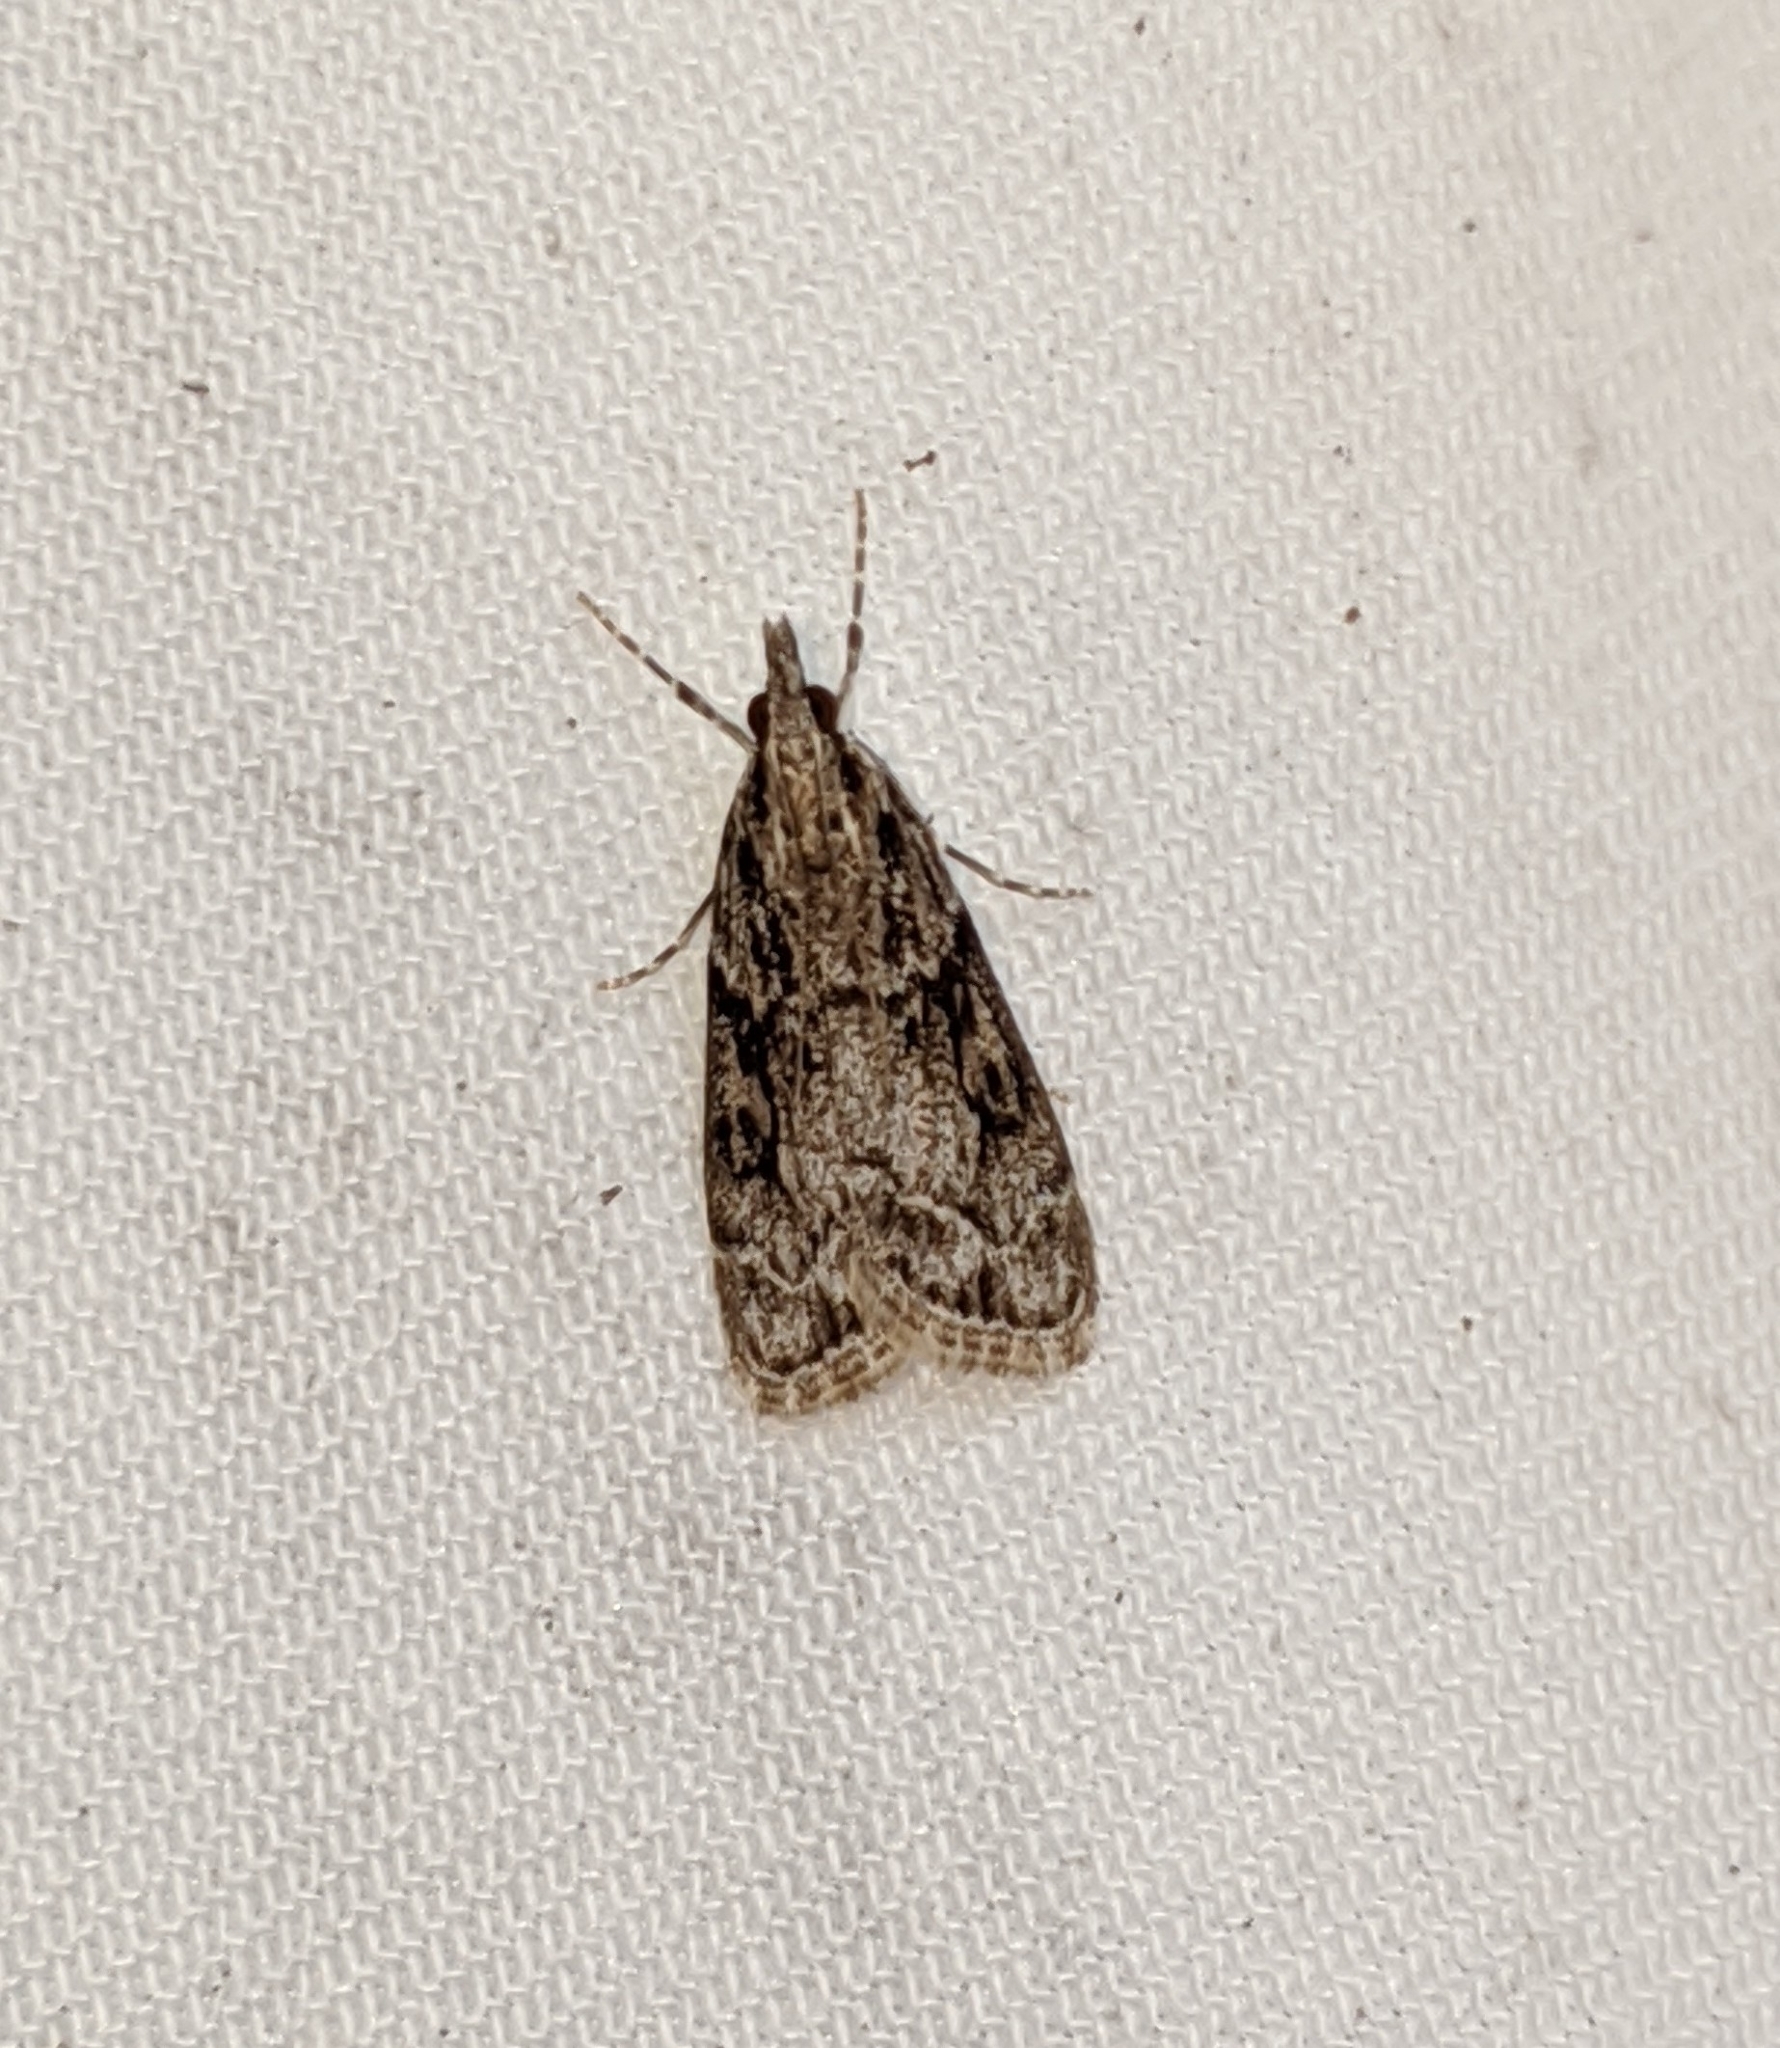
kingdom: Animalia
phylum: Arthropoda
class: Insecta
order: Lepidoptera
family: Crambidae
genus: Scoparia
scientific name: Scoparia biplagialis
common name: Double-striped scoparia moth
